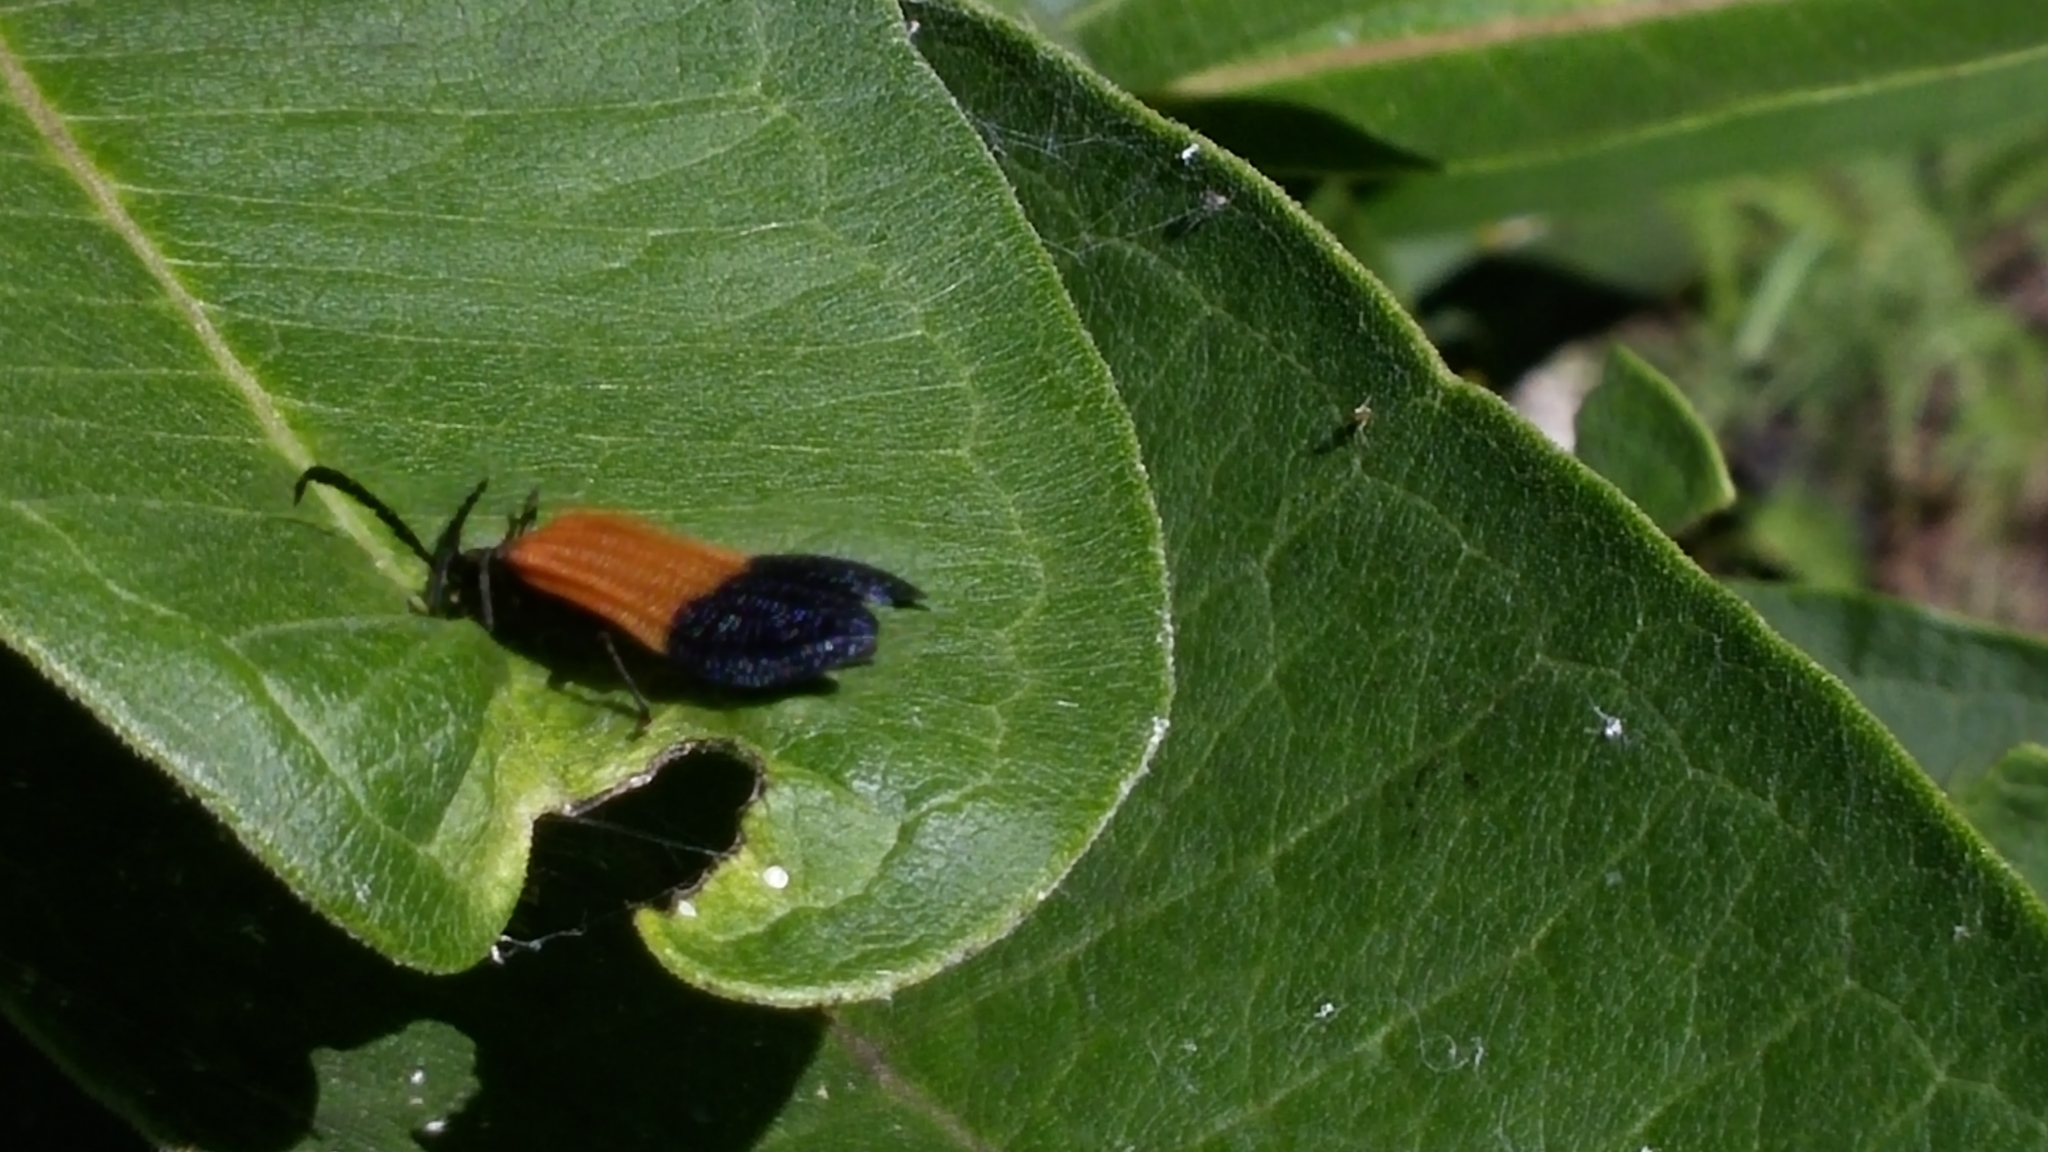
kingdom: Animalia
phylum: Arthropoda
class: Insecta
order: Coleoptera
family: Lycidae
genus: Calopteron
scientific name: Calopteron terminale
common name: End band net-winged beetle
